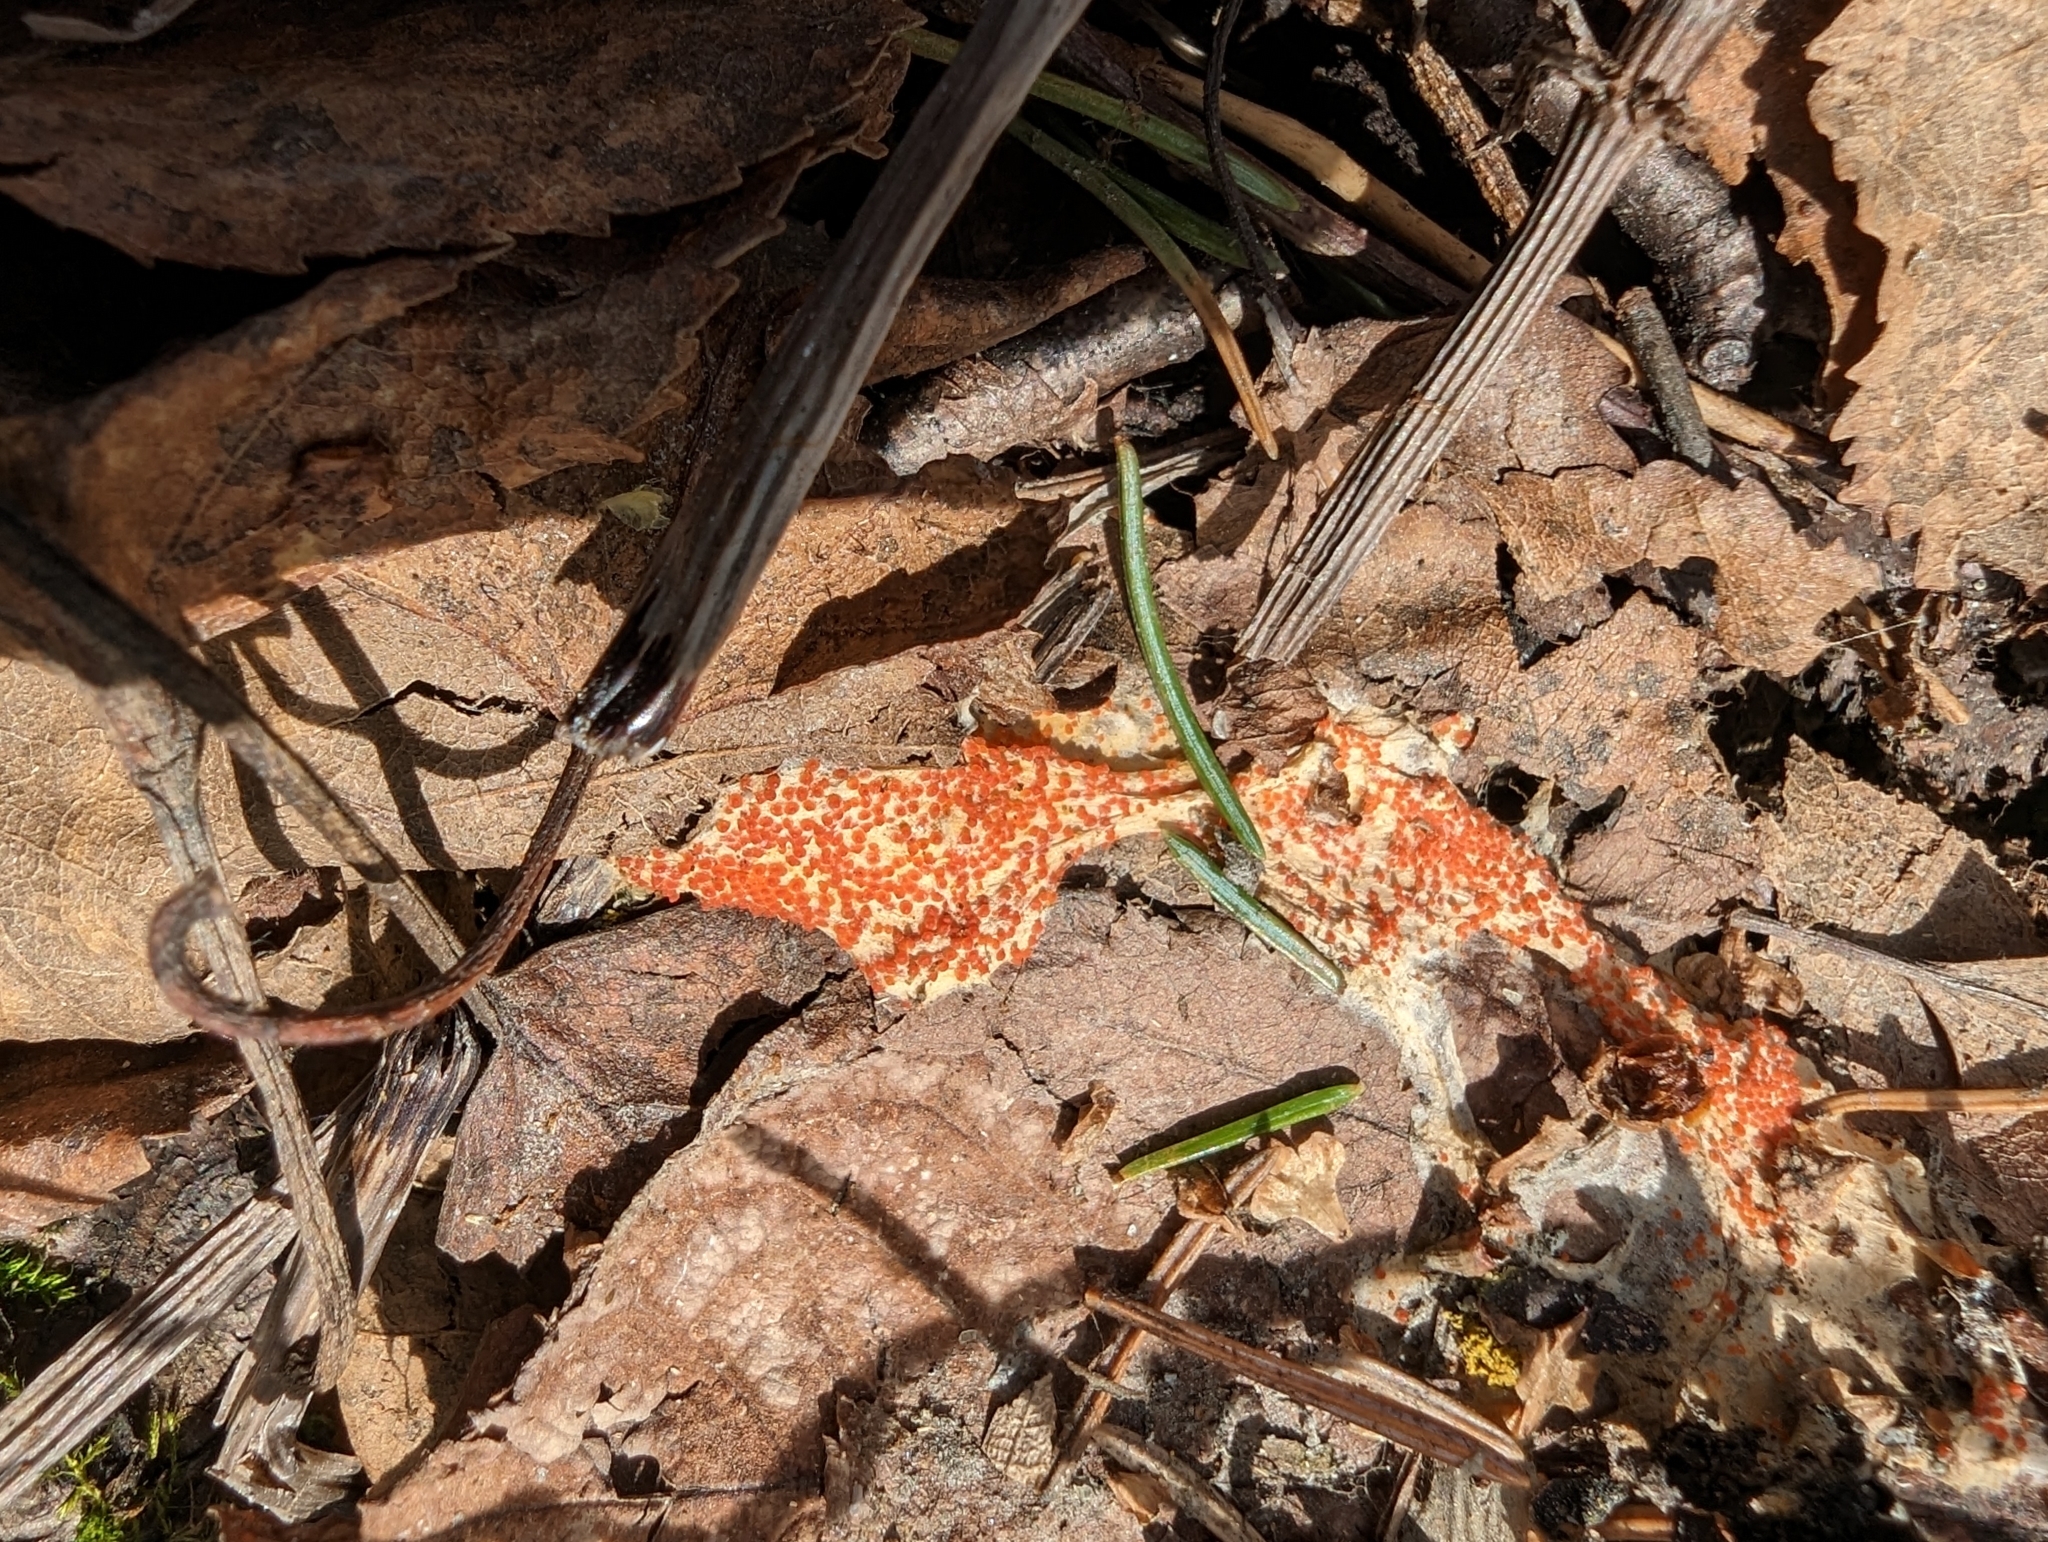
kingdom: Fungi
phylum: Ascomycota
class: Pezizomycetes
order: Pezizales
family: Pyronemataceae
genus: Byssonectria
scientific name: Byssonectria terrestris
